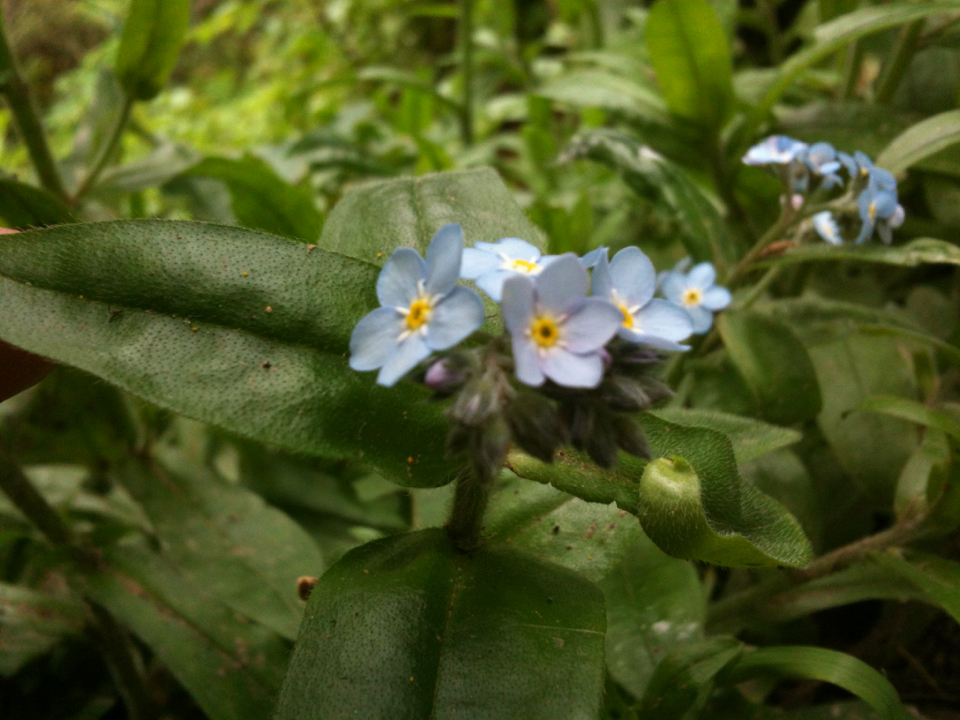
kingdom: Plantae
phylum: Tracheophyta
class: Magnoliopsida
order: Boraginales
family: Boraginaceae
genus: Myosotis
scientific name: Myosotis latifolia
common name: Broadleaf forget-me-not
